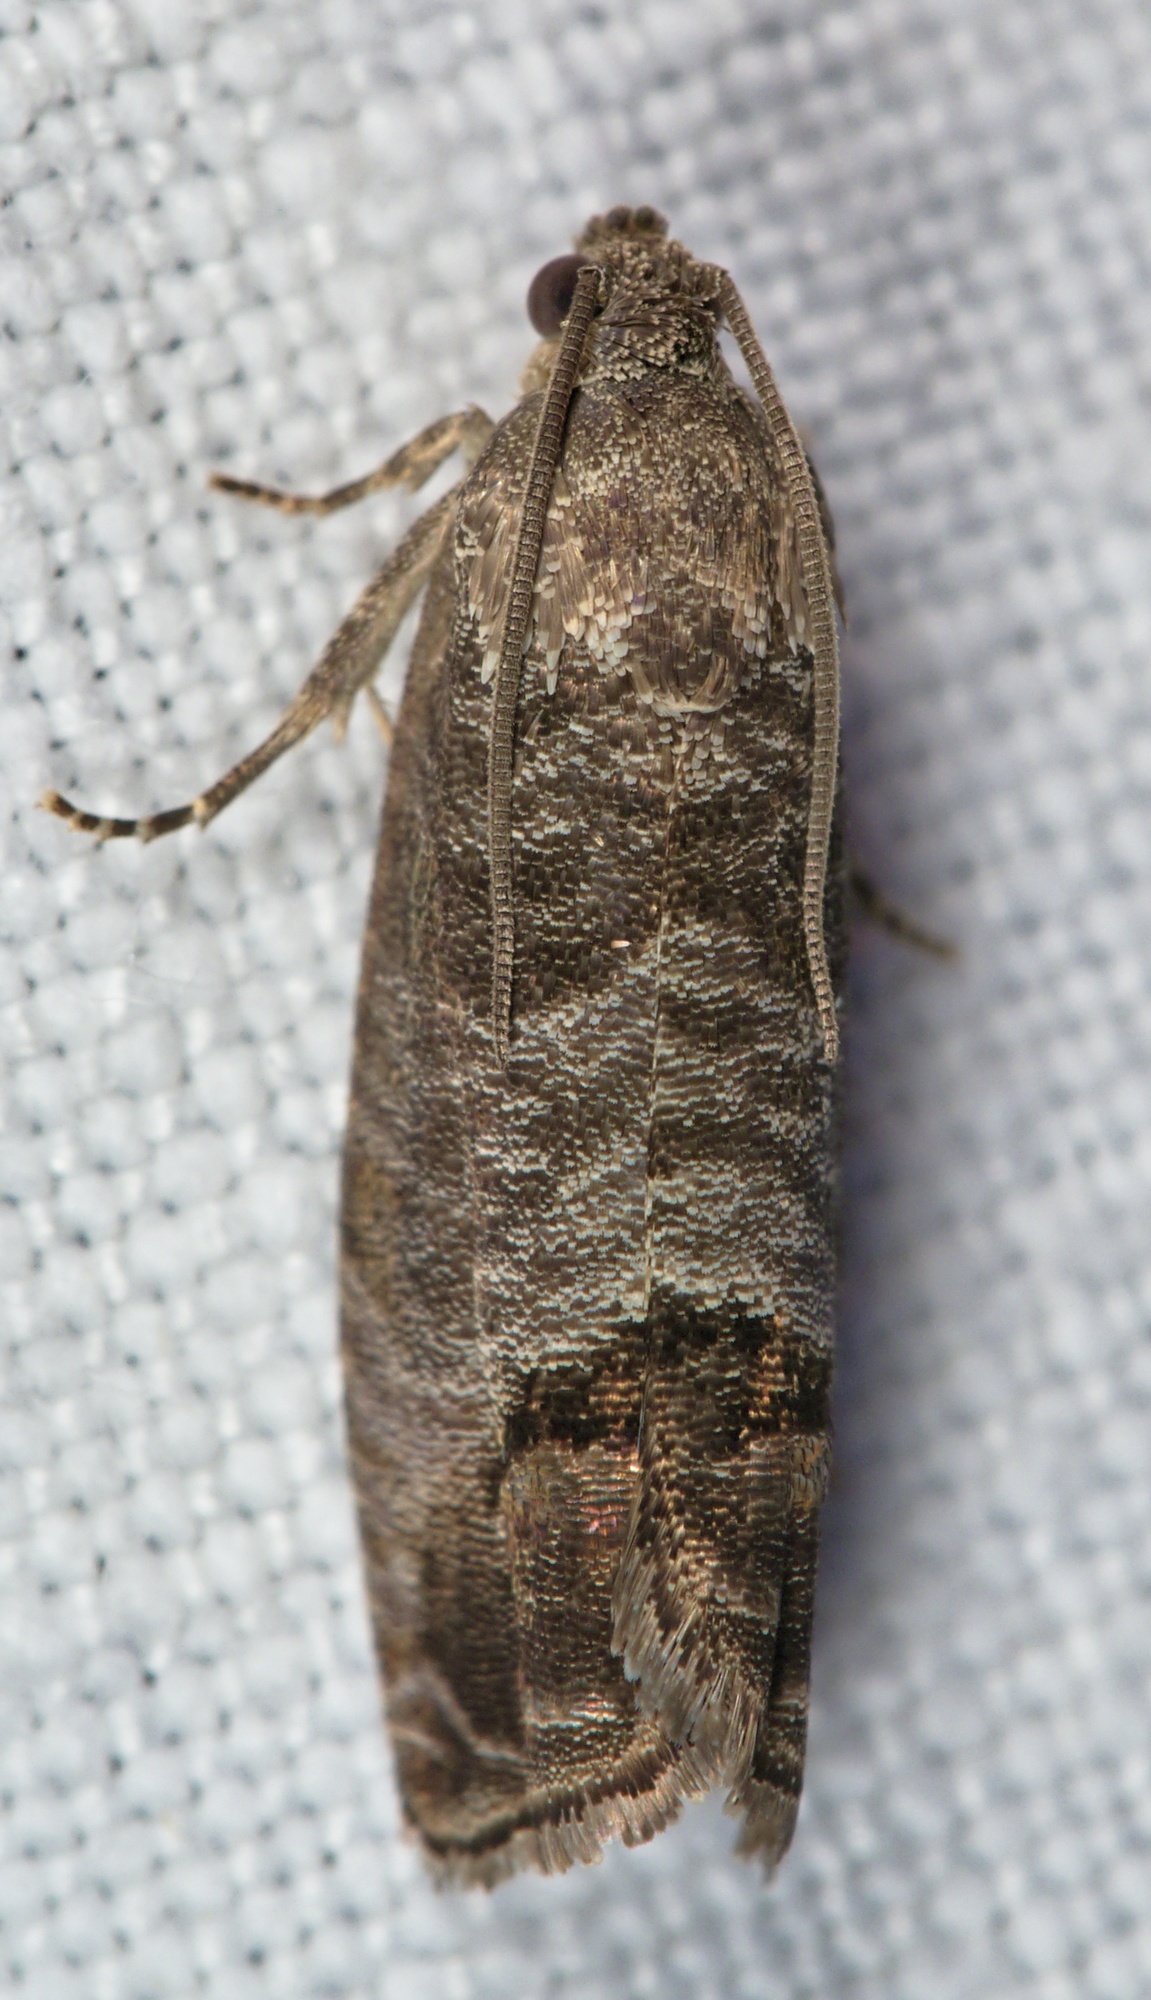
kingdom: Animalia
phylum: Arthropoda
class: Insecta
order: Lepidoptera
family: Tortricidae
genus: Cydia
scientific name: Cydia pomonella
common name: Codling moth
